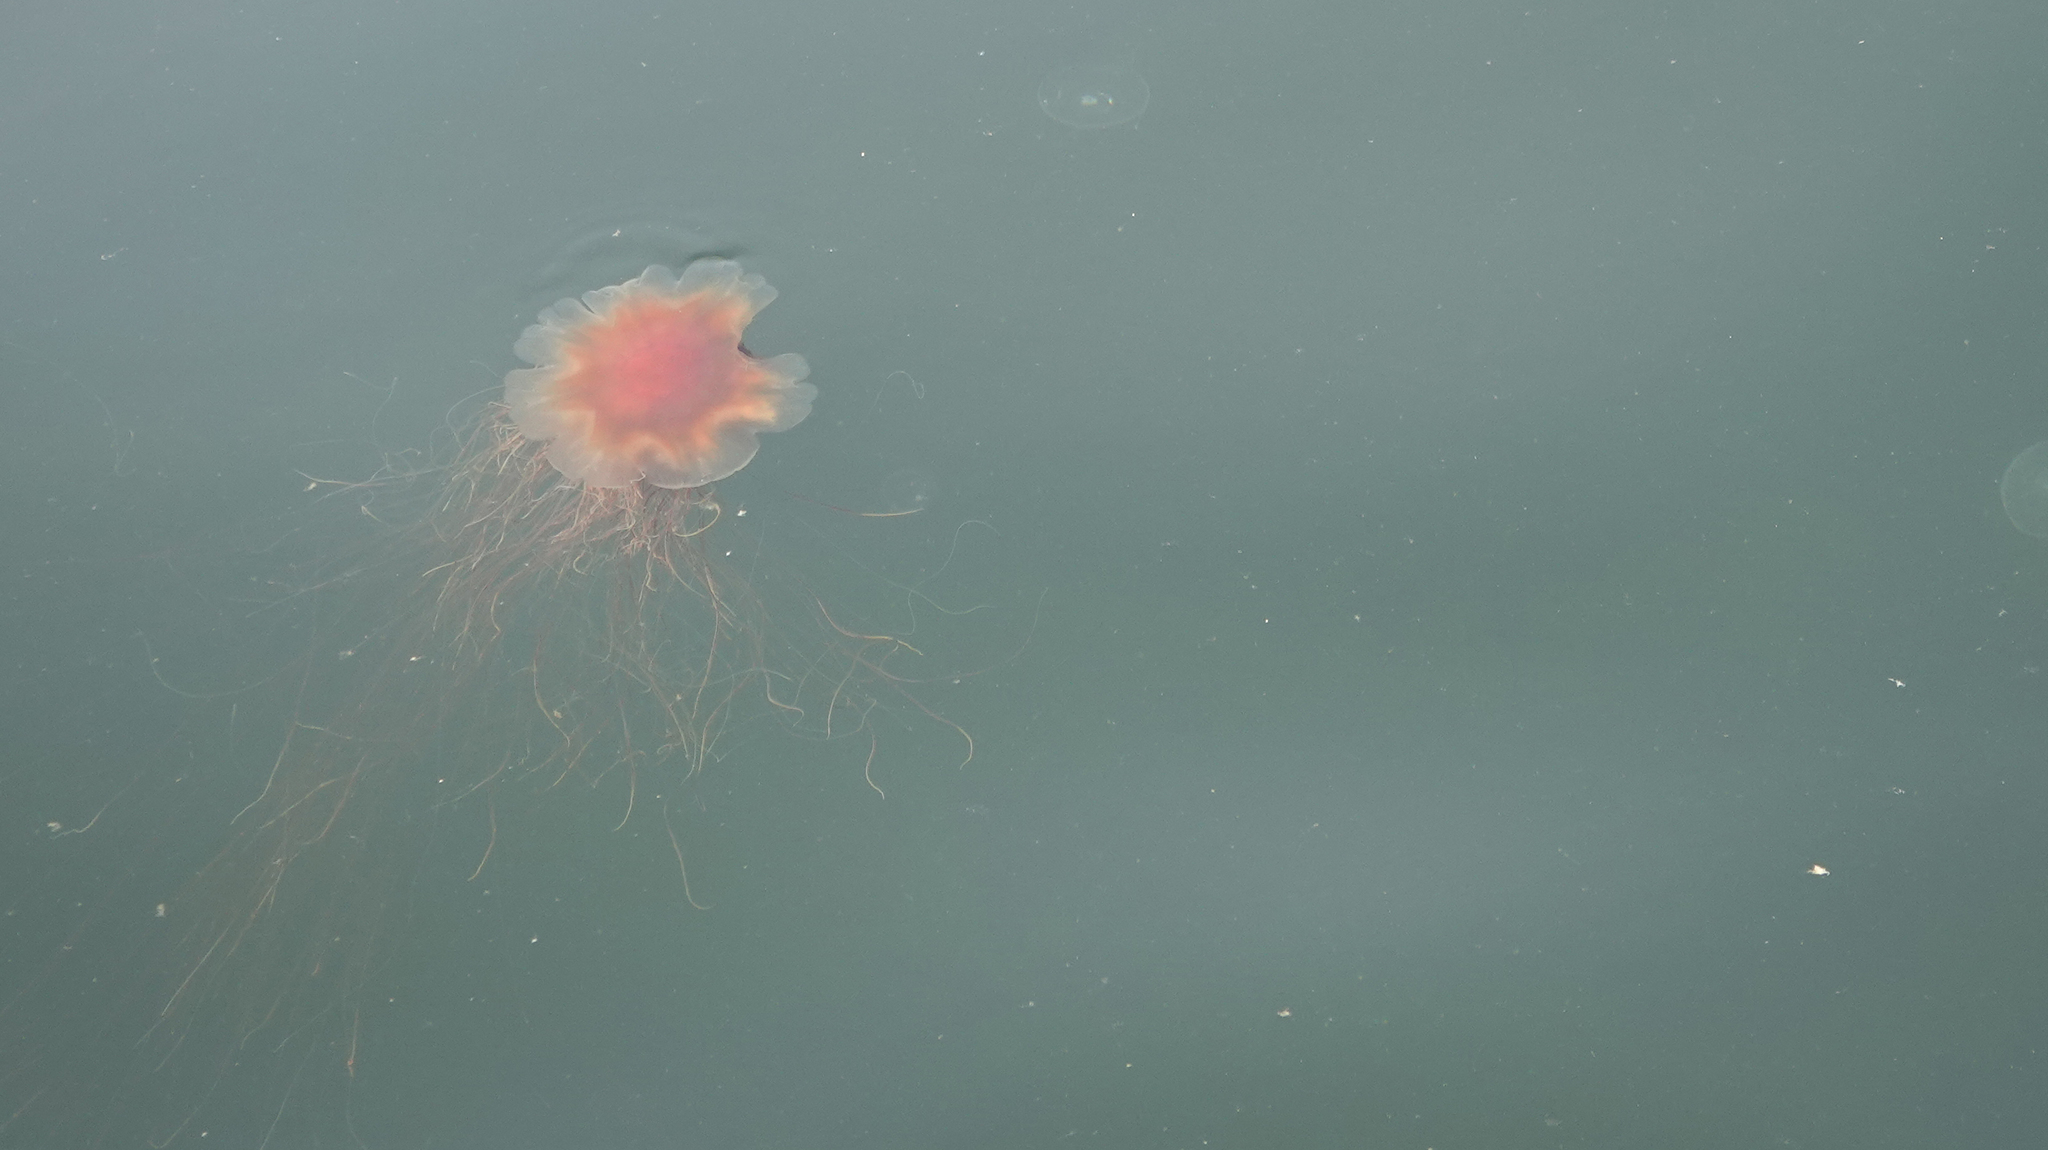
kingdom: Animalia
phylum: Cnidaria
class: Scyphozoa
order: Semaeostomeae
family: Cyaneidae
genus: Cyanea
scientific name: Cyanea ferruginea
